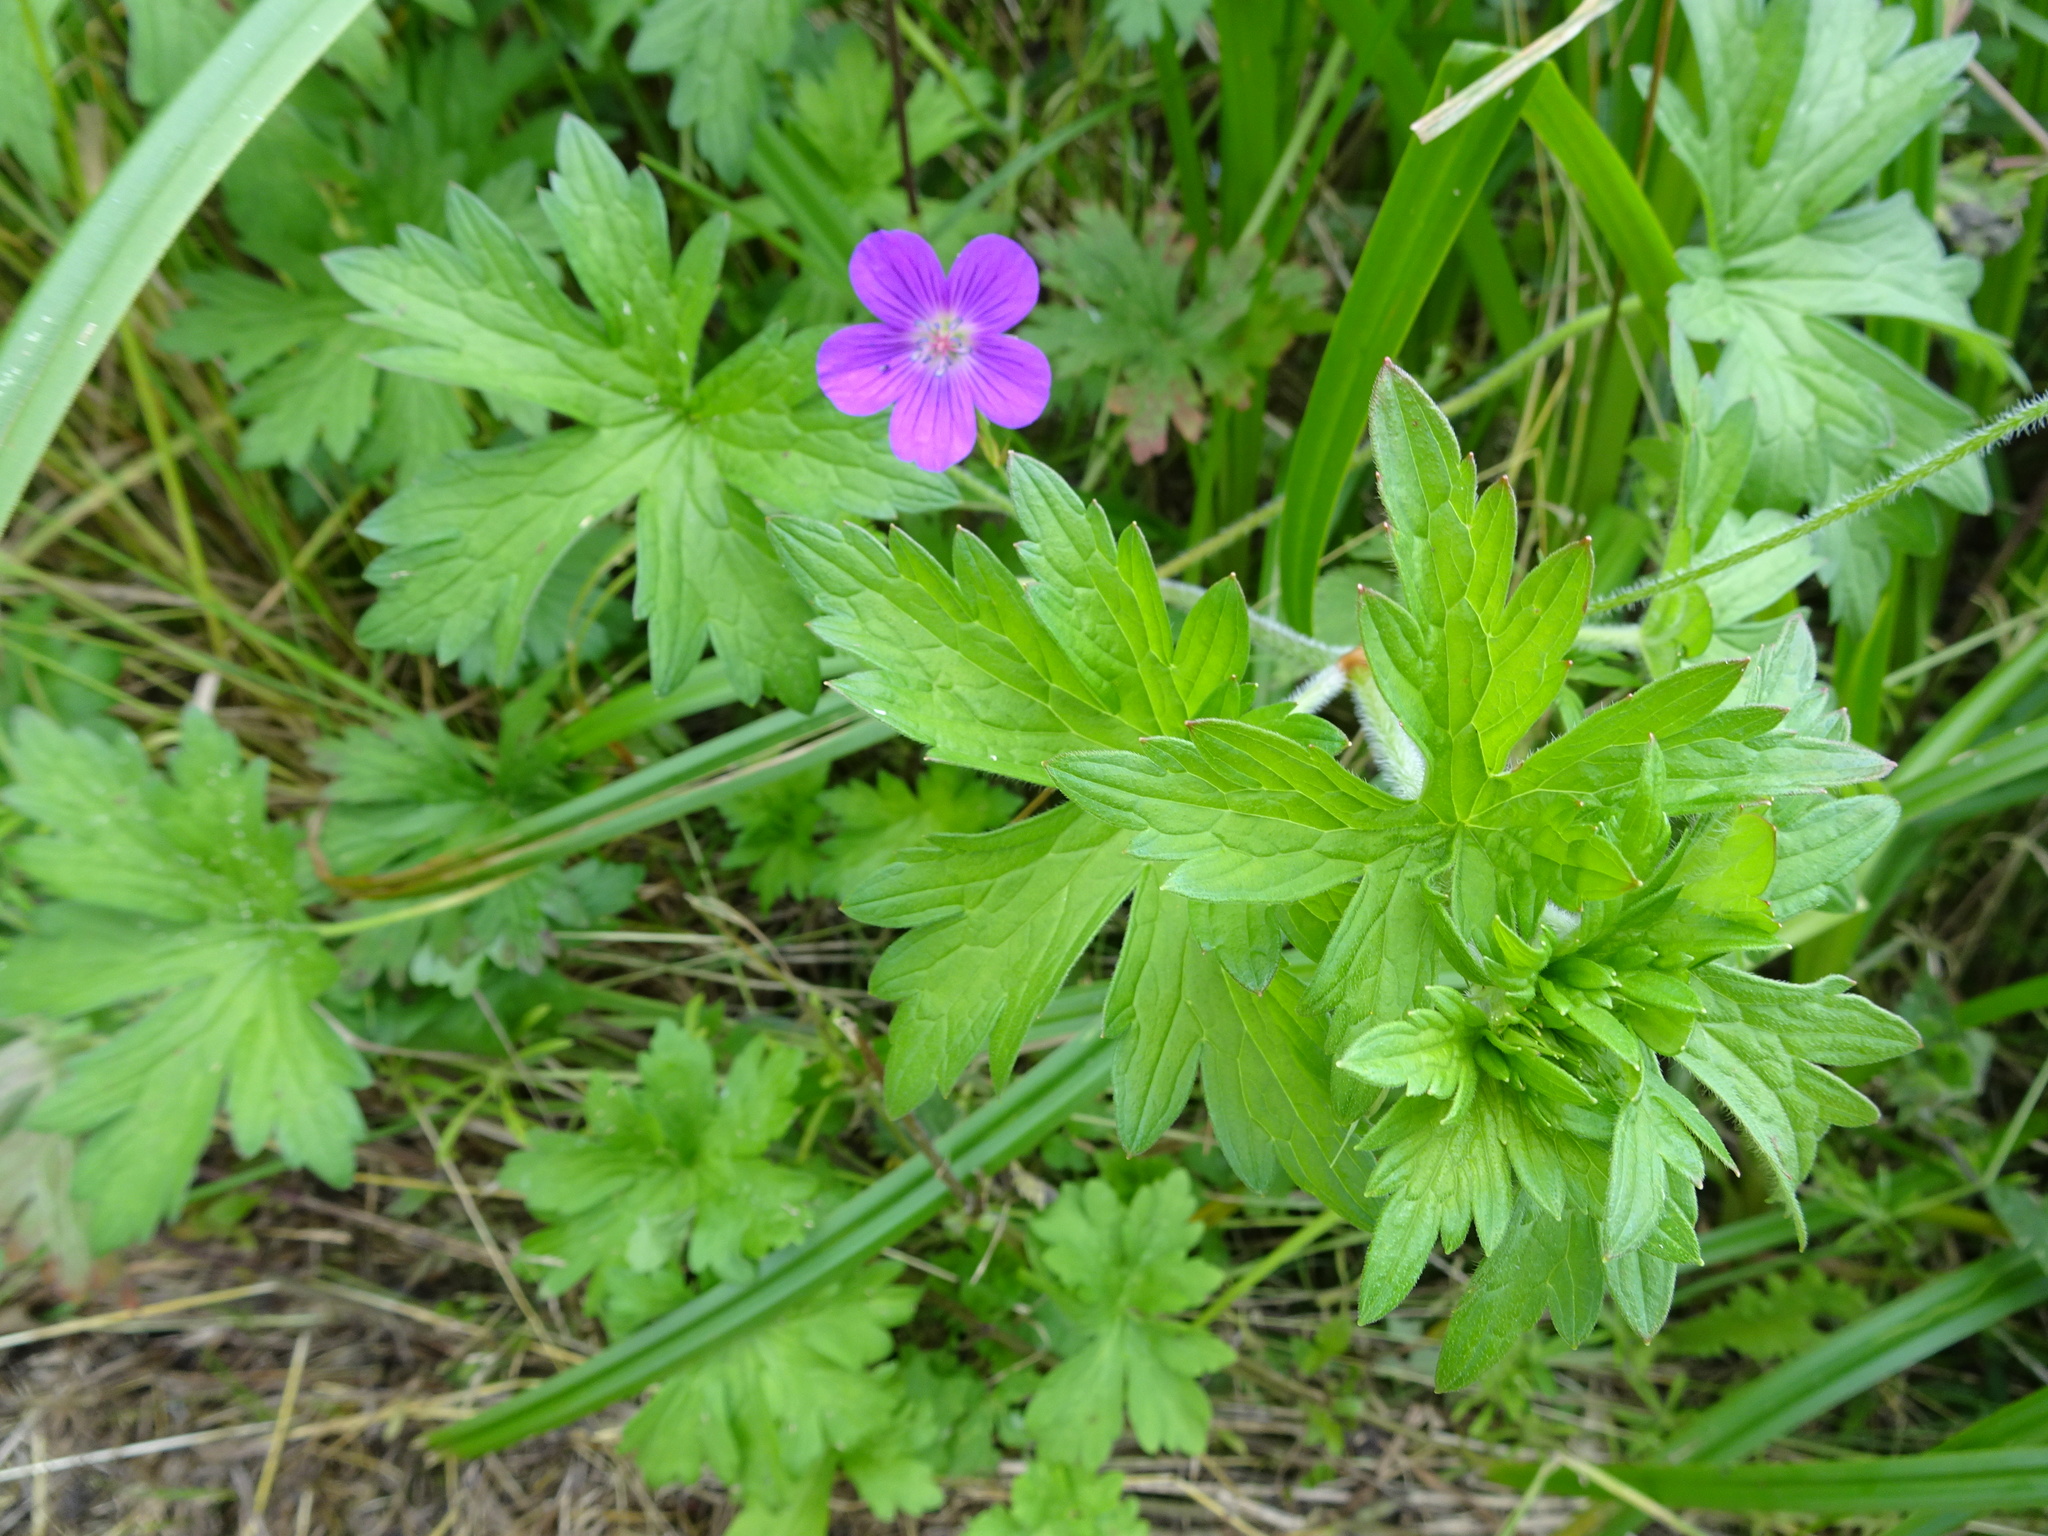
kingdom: Plantae
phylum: Tracheophyta
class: Magnoliopsida
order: Geraniales
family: Geraniaceae
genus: Geranium
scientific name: Geranium sylvaticum
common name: Wood crane's-bill
